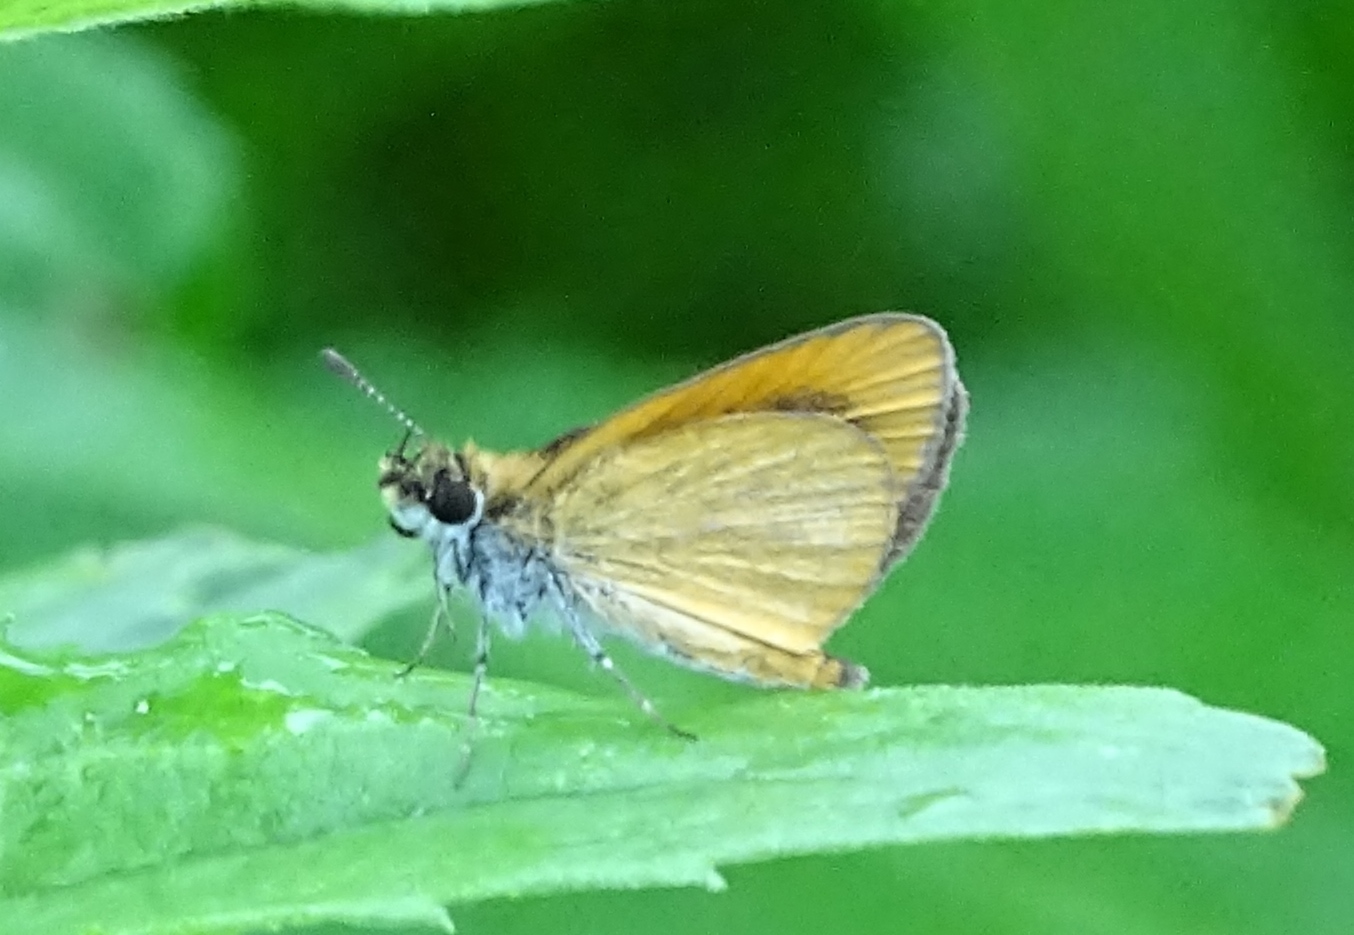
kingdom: Animalia
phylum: Arthropoda
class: Insecta
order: Lepidoptera
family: Hesperiidae
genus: Ancyloxypha
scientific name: Ancyloxypha numitor
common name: Least skipper
